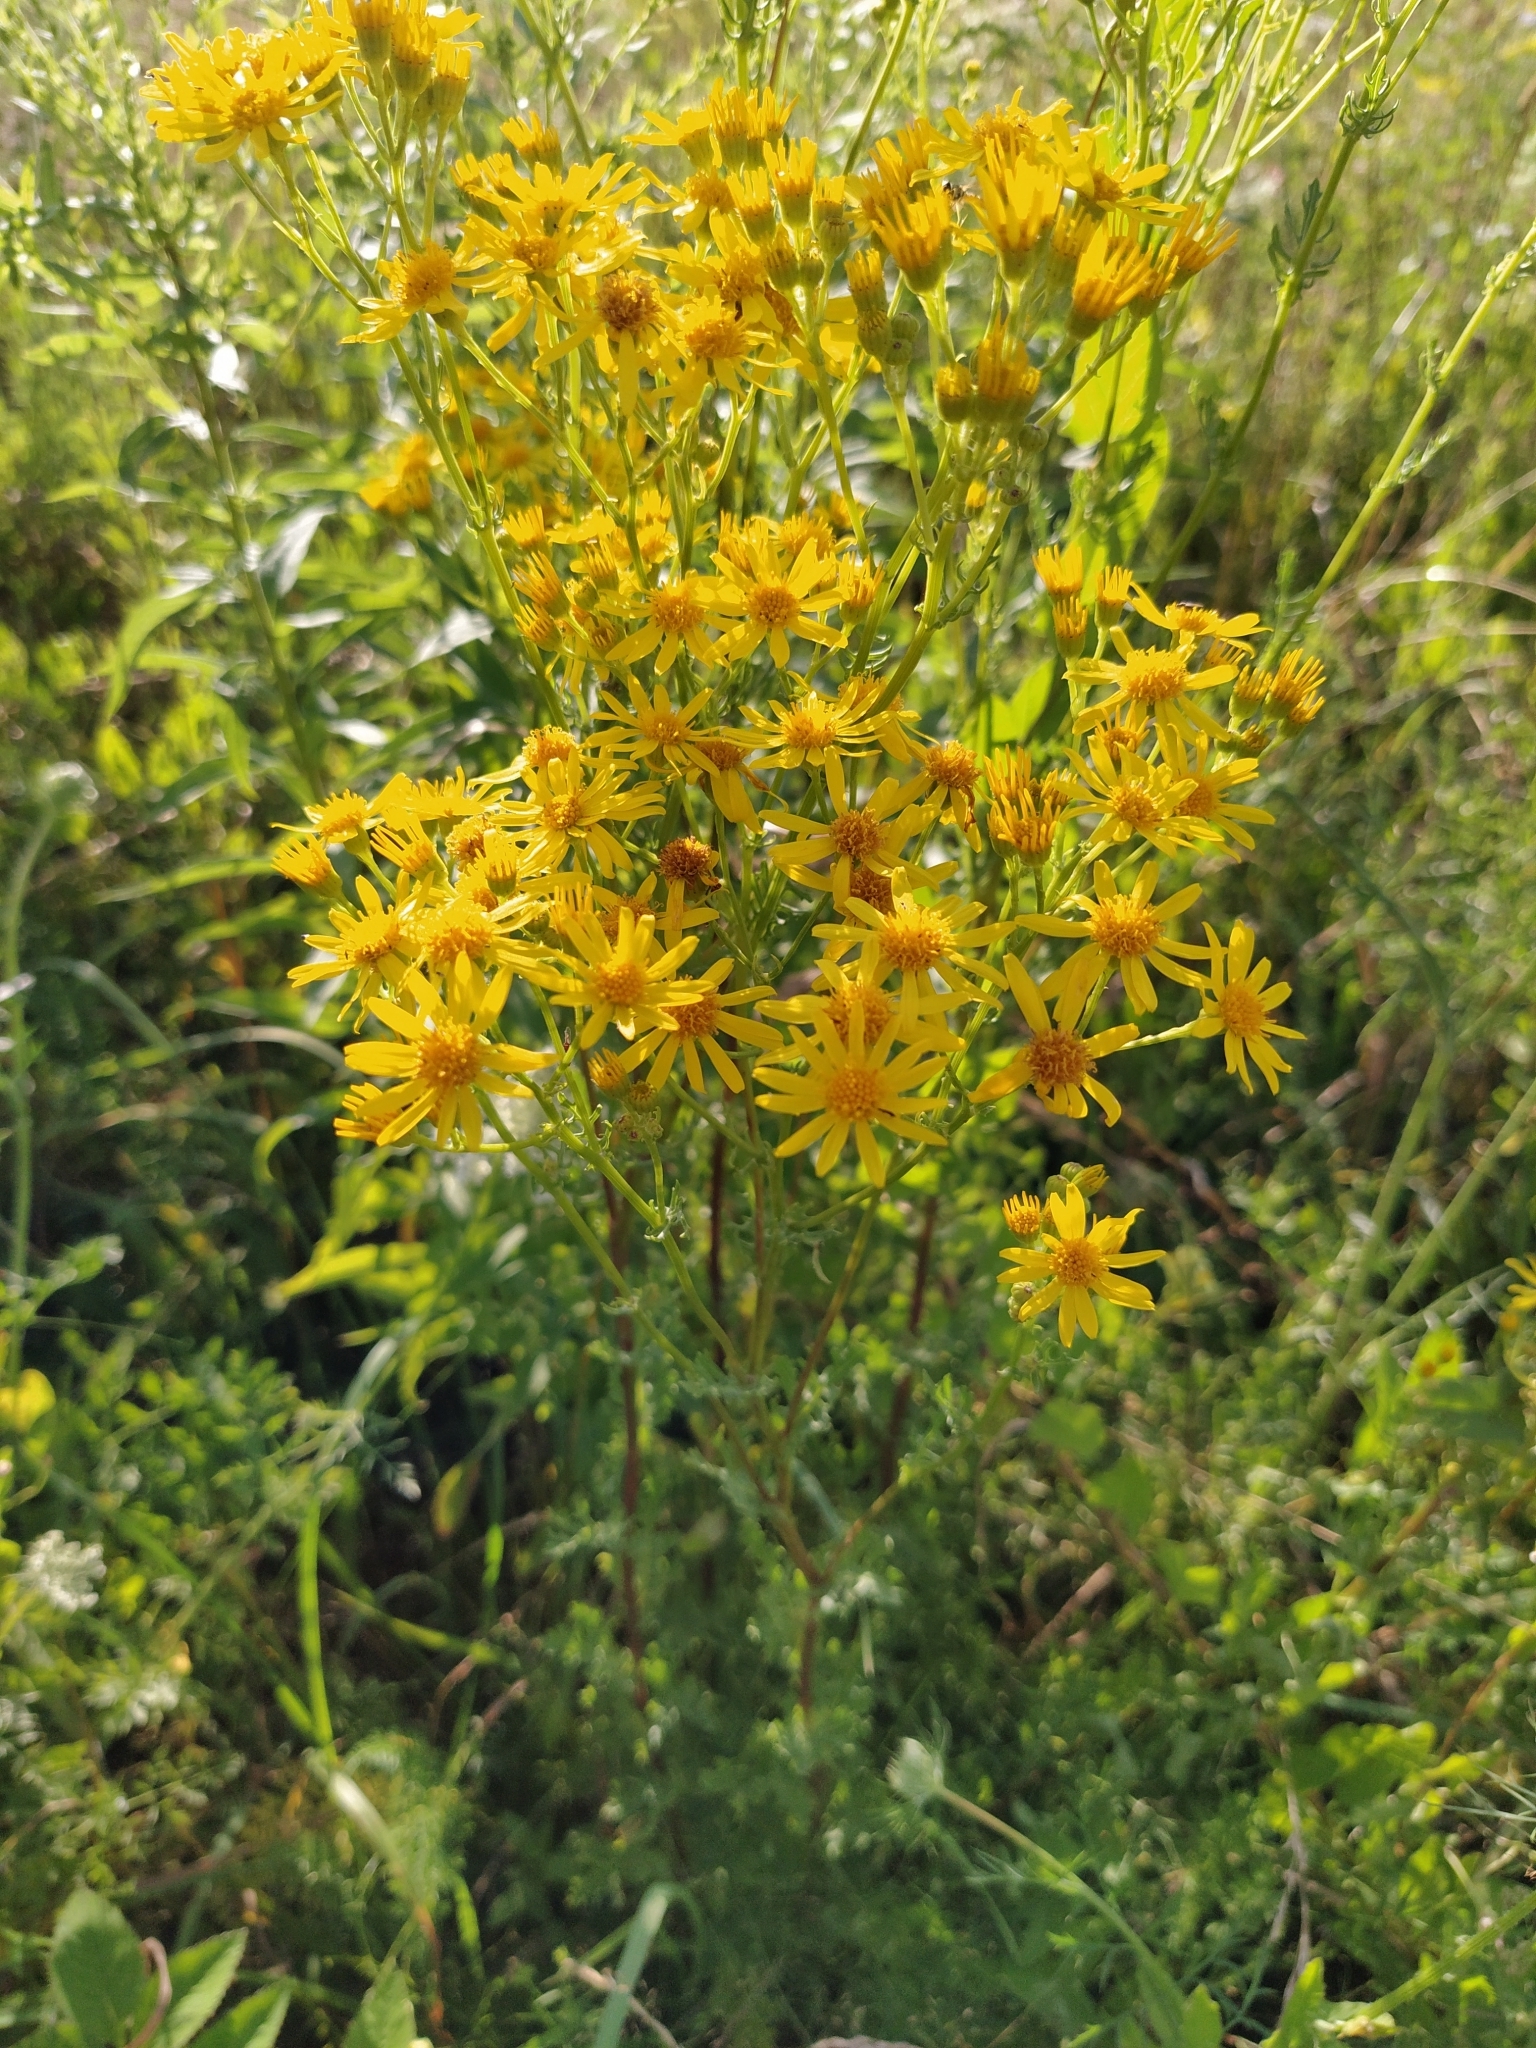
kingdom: Plantae
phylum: Tracheophyta
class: Magnoliopsida
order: Asterales
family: Asteraceae
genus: Jacobaea
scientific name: Jacobaea vulgaris
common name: Stinking willie
